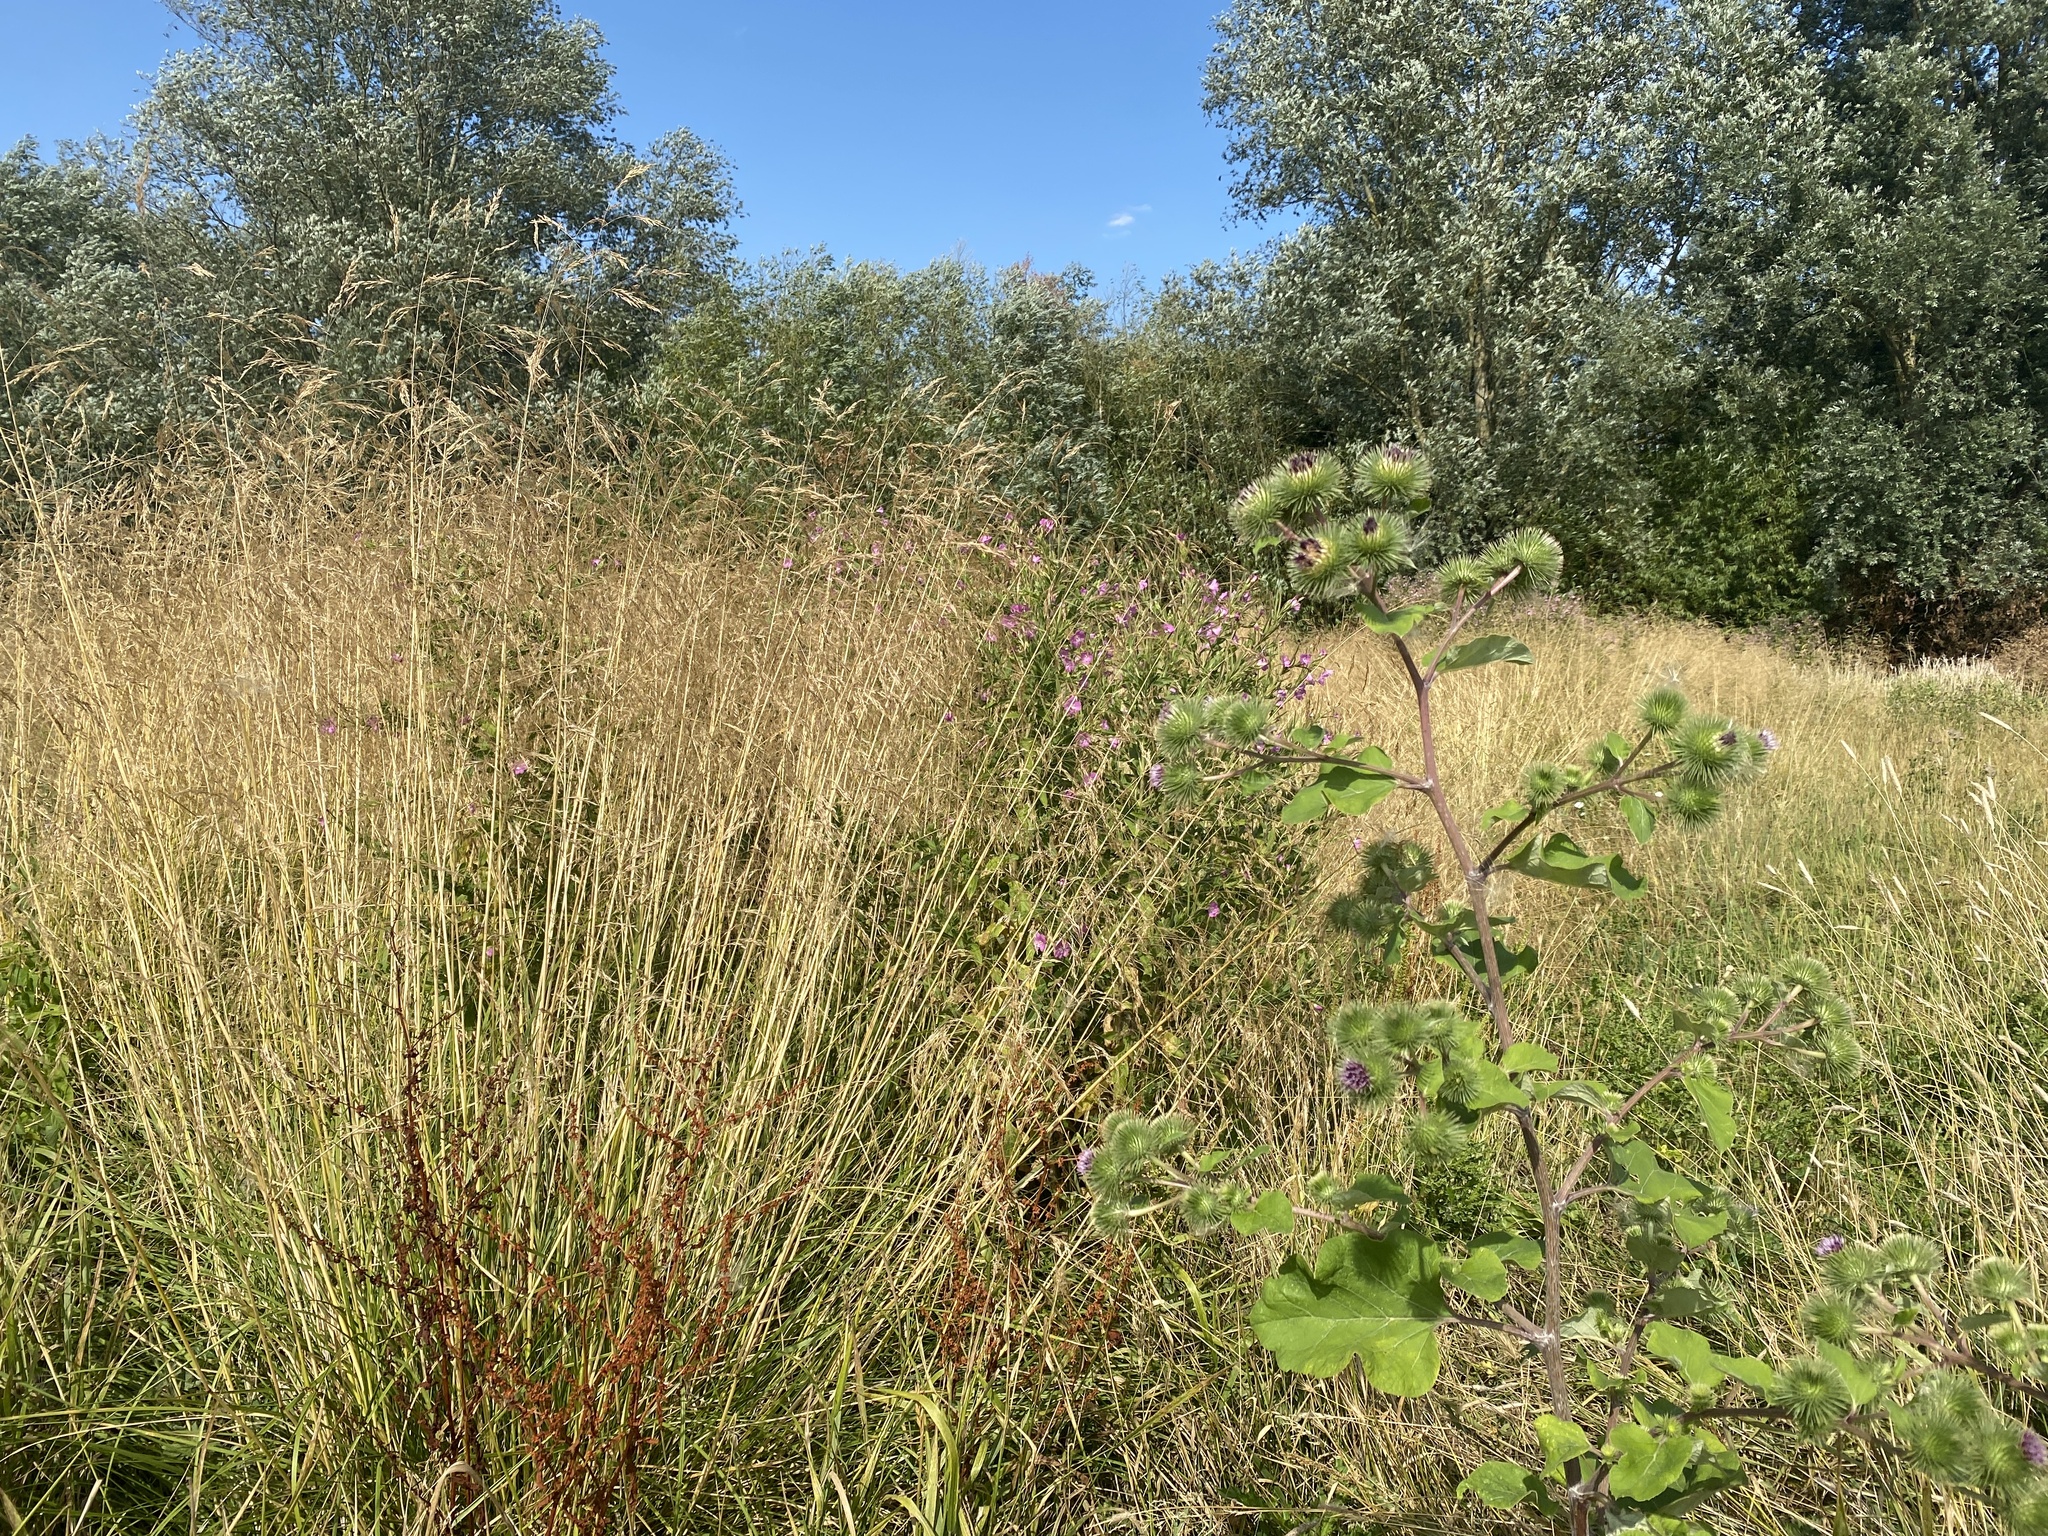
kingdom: Plantae
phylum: Tracheophyta
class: Liliopsida
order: Poales
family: Poaceae
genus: Deschampsia
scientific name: Deschampsia cespitosa
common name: Tufted hair-grass
